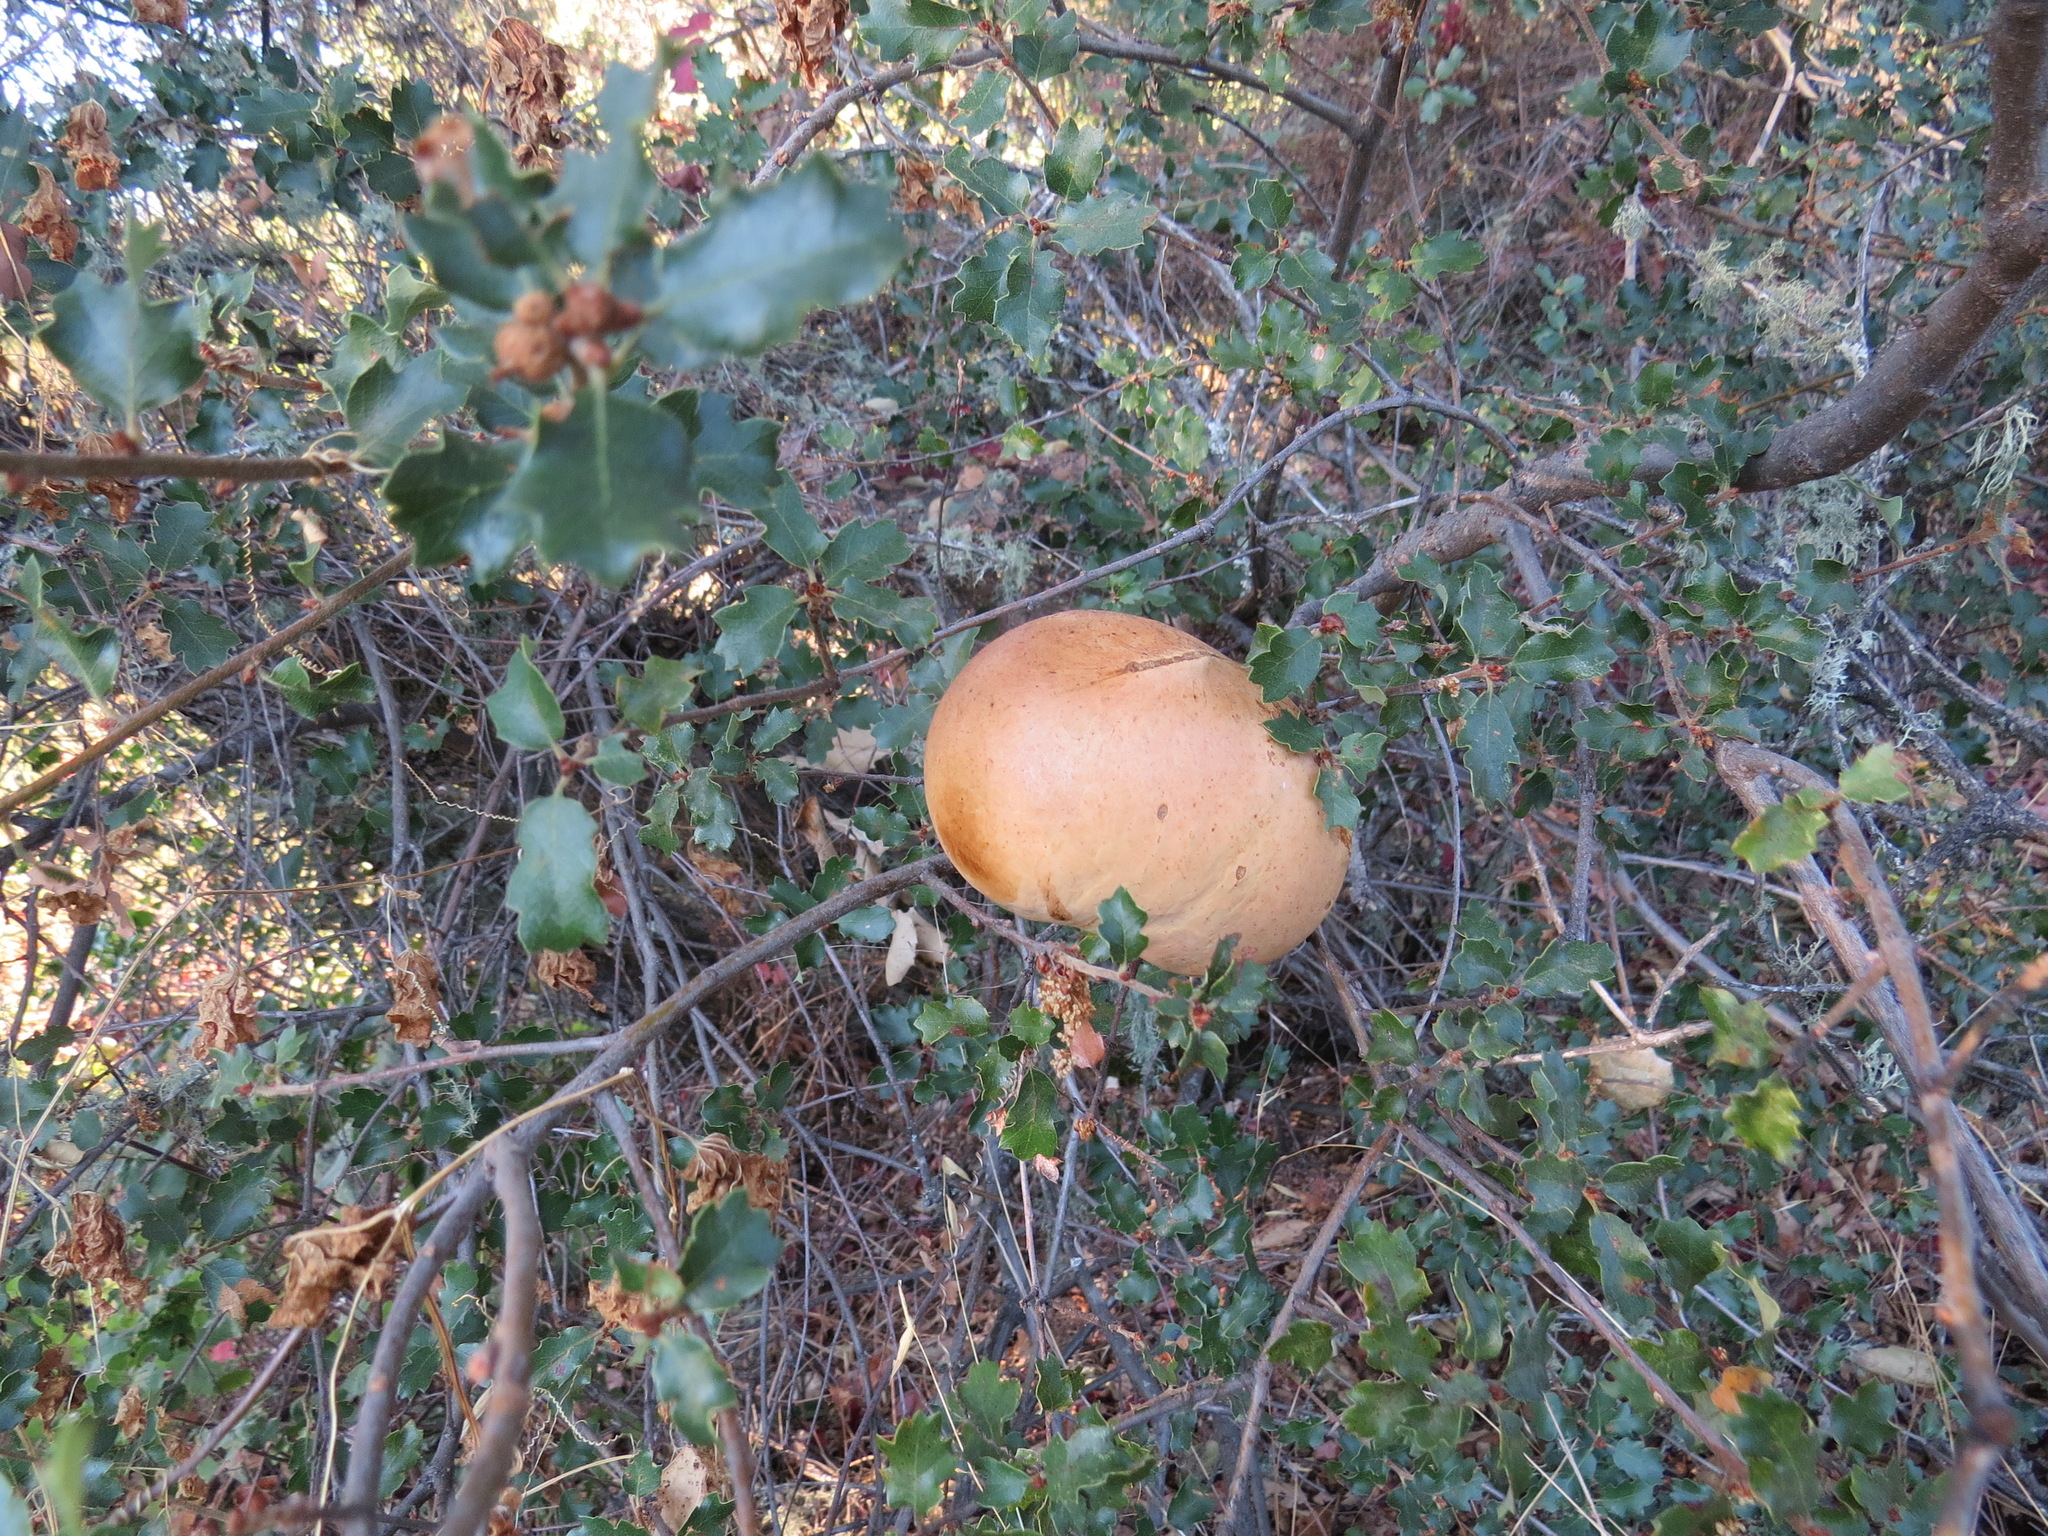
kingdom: Animalia
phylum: Arthropoda
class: Insecta
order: Hymenoptera
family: Cynipidae
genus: Andricus
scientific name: Andricus quercuscalifornicus
